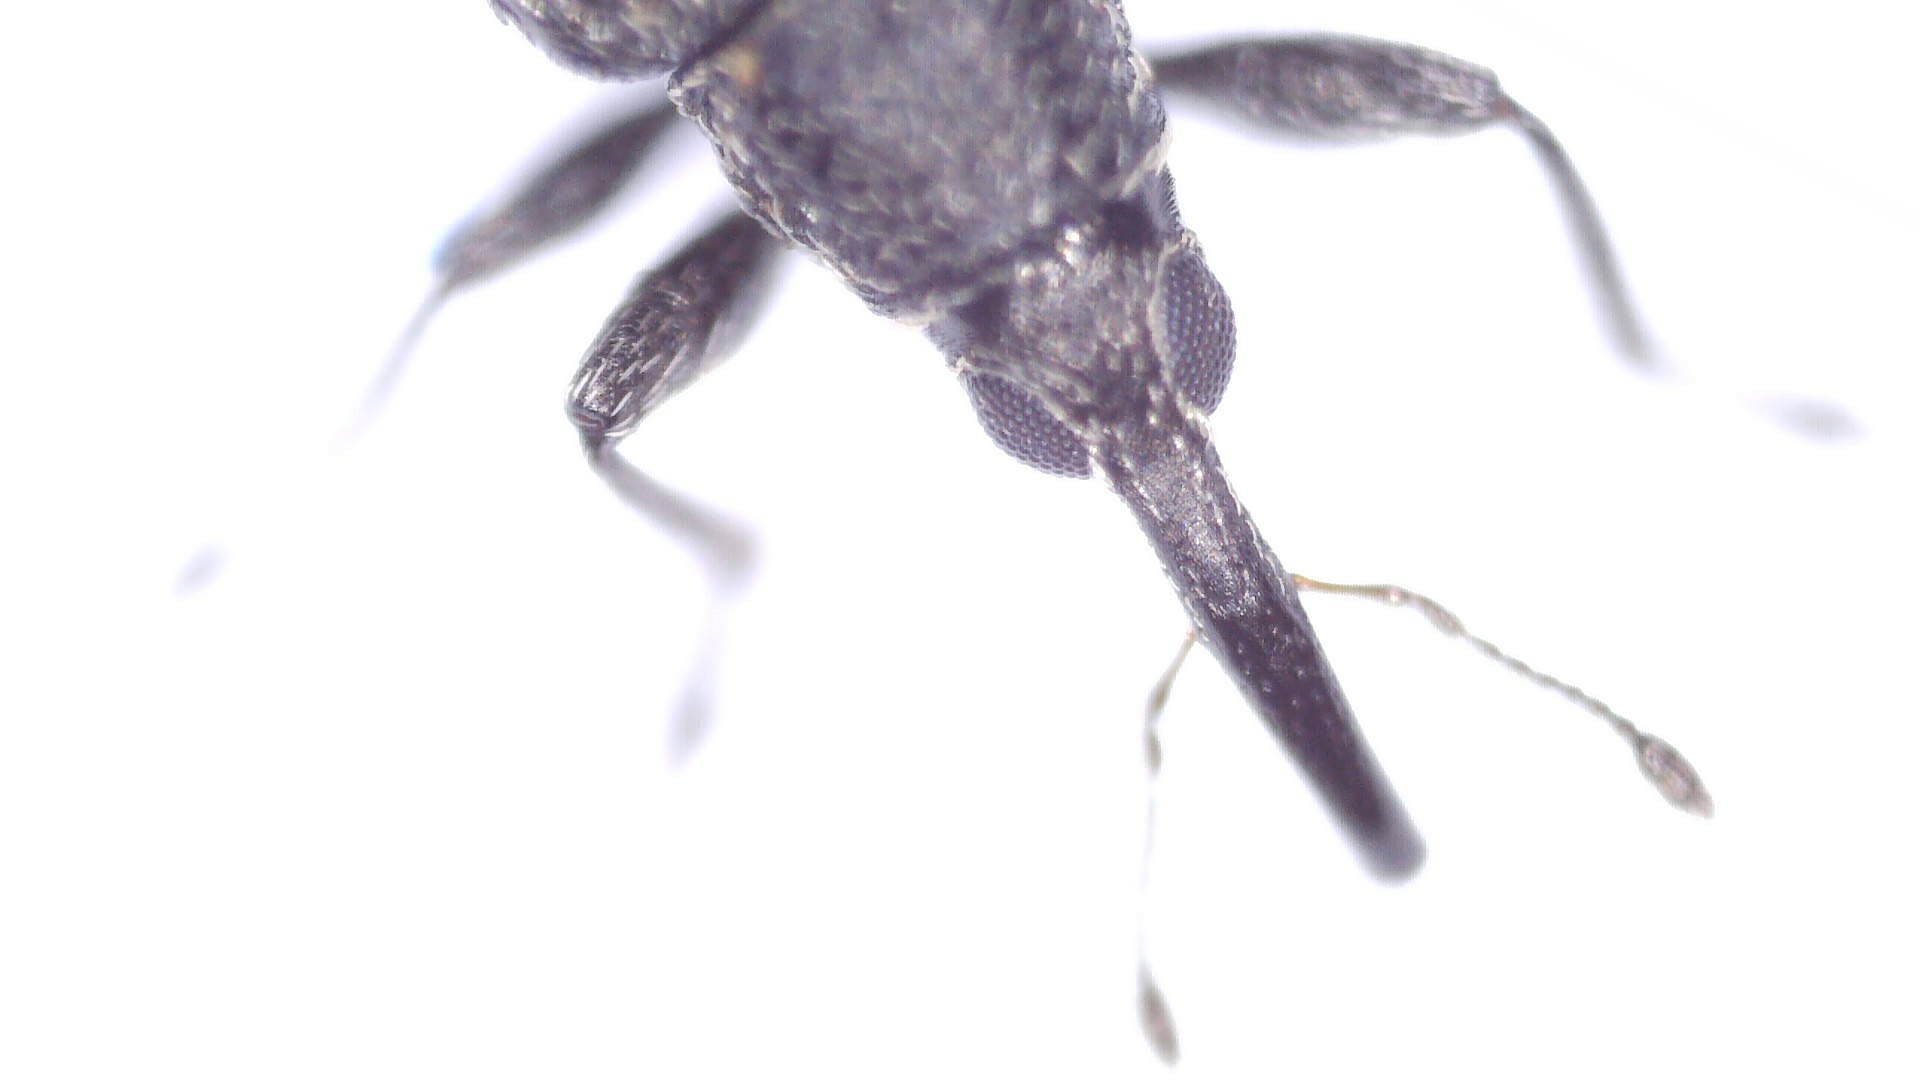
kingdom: Animalia
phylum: Arthropoda
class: Insecta
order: Coleoptera
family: Brentidae
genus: Betulapion
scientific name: Betulapion simile
